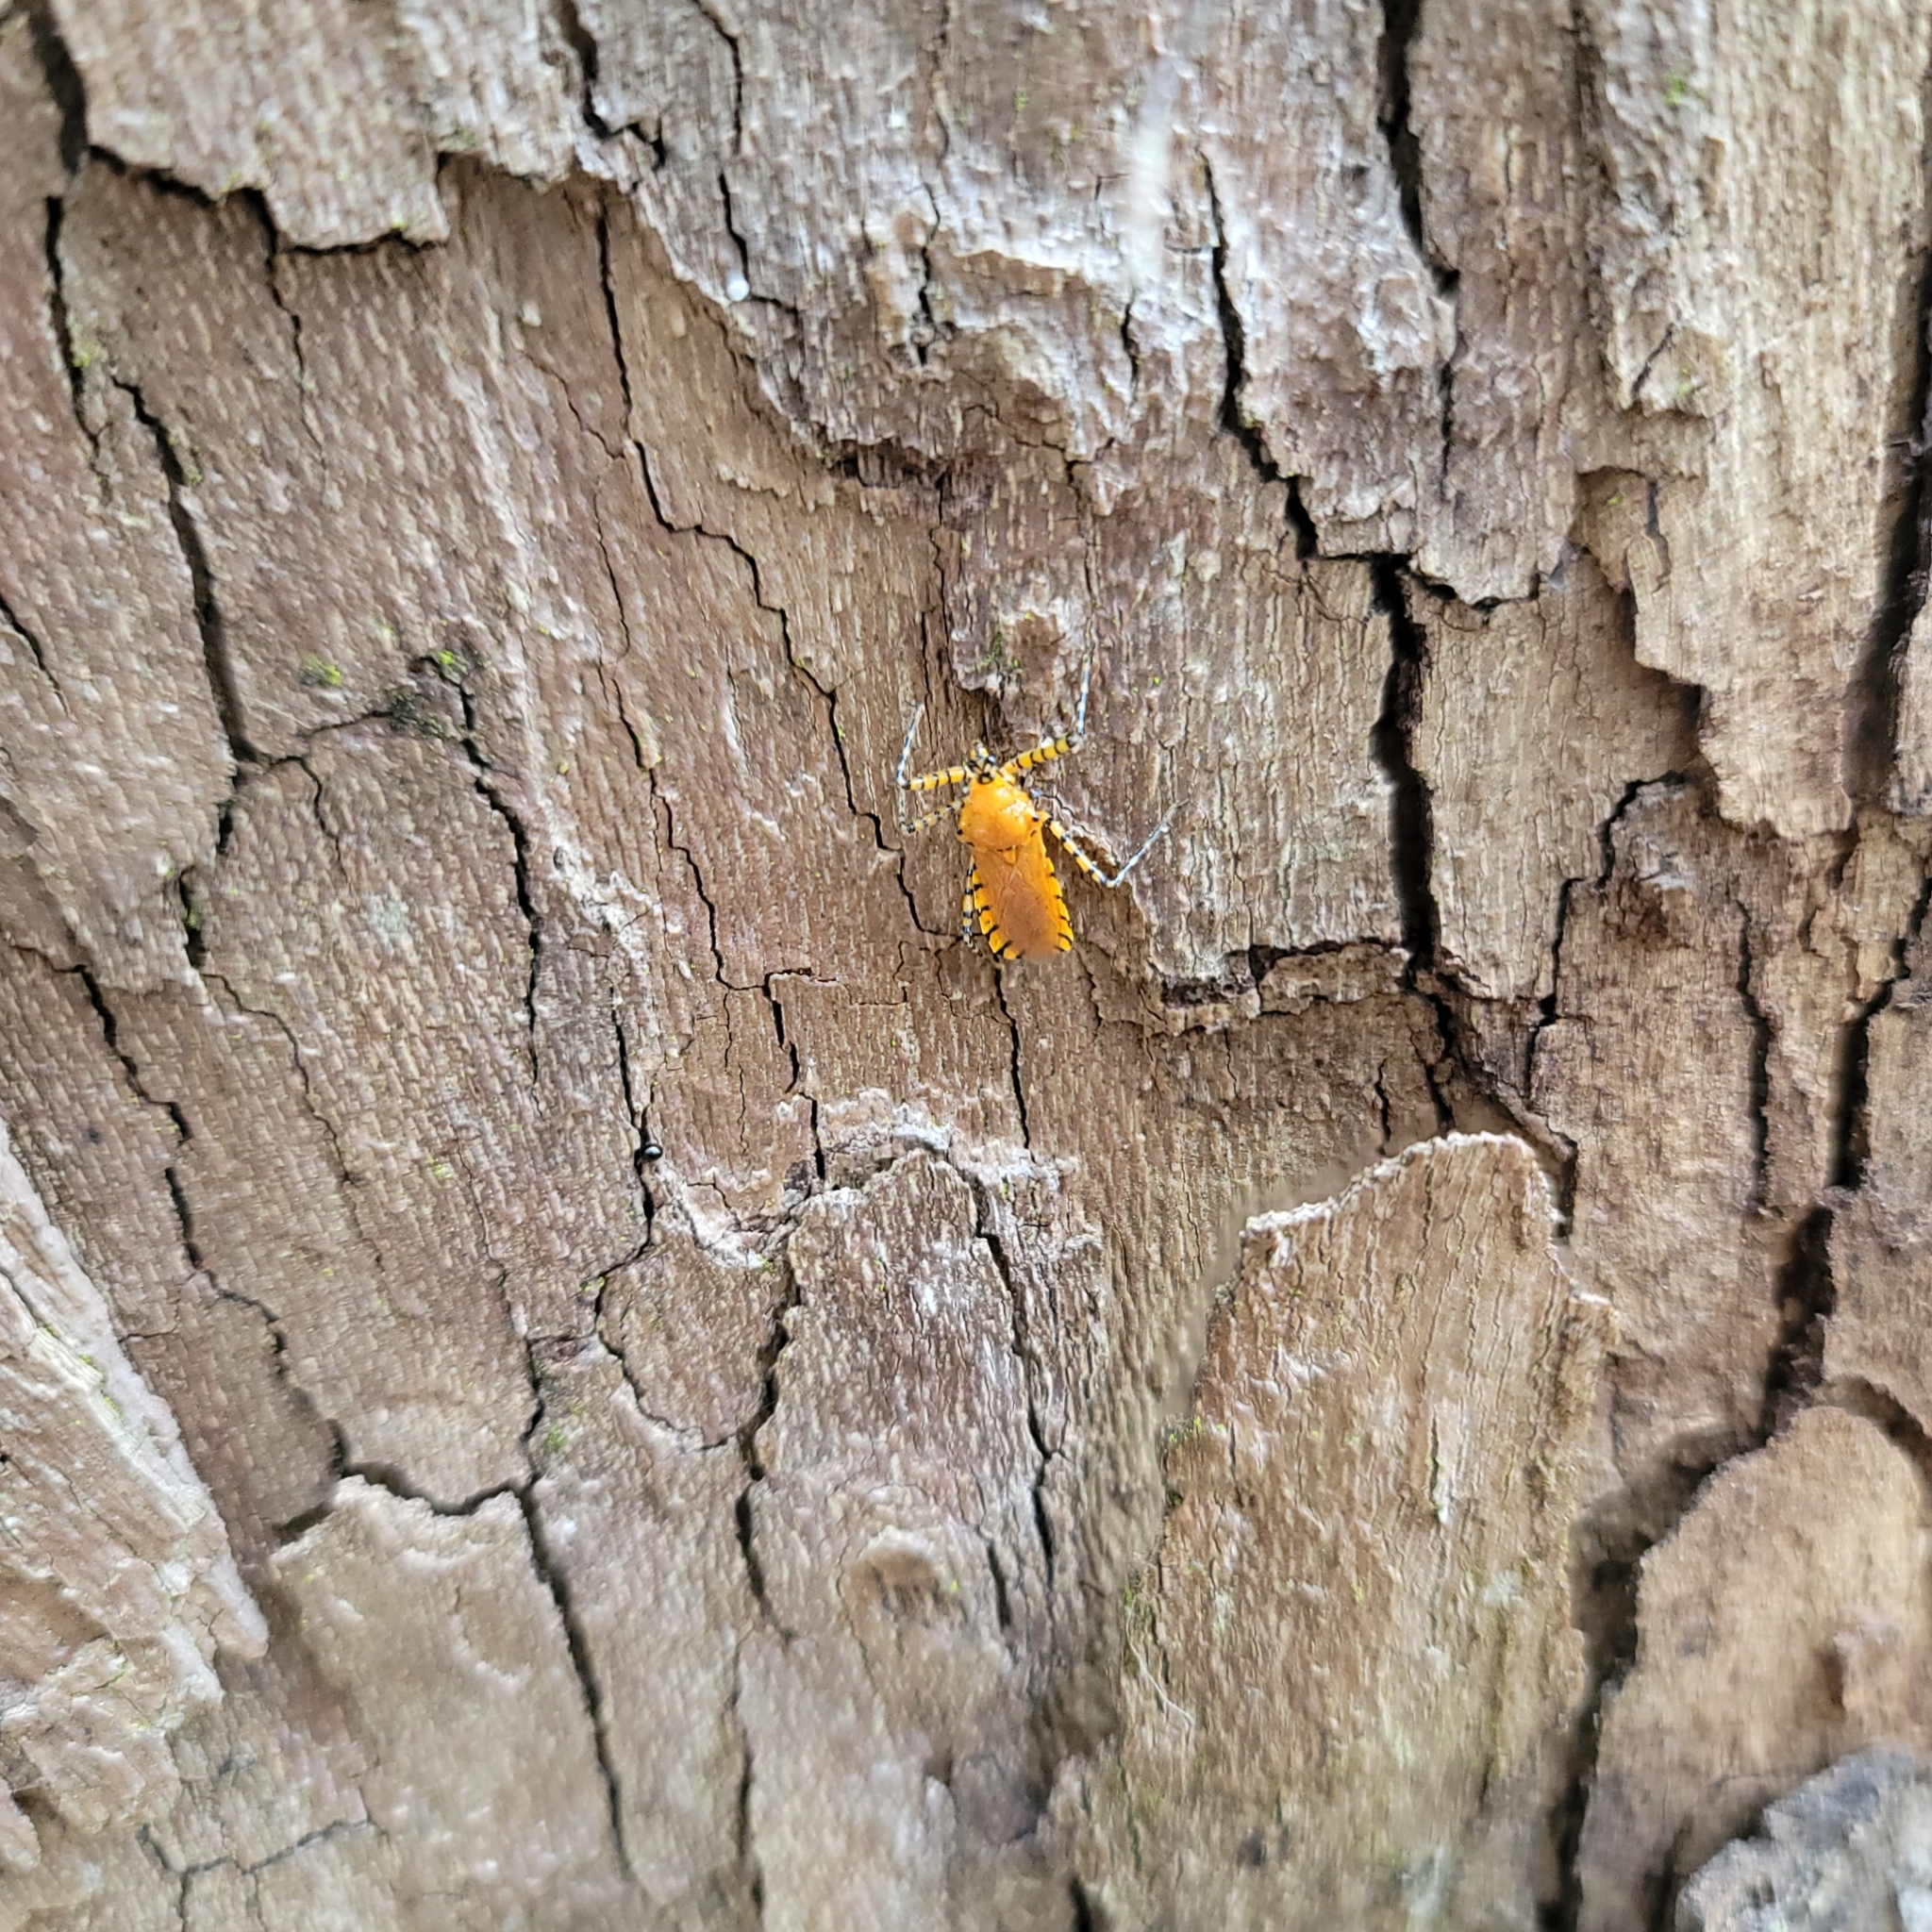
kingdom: Animalia
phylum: Arthropoda
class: Insecta
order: Hemiptera
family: Reduviidae
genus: Pselliopus
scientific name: Pselliopus barberi
